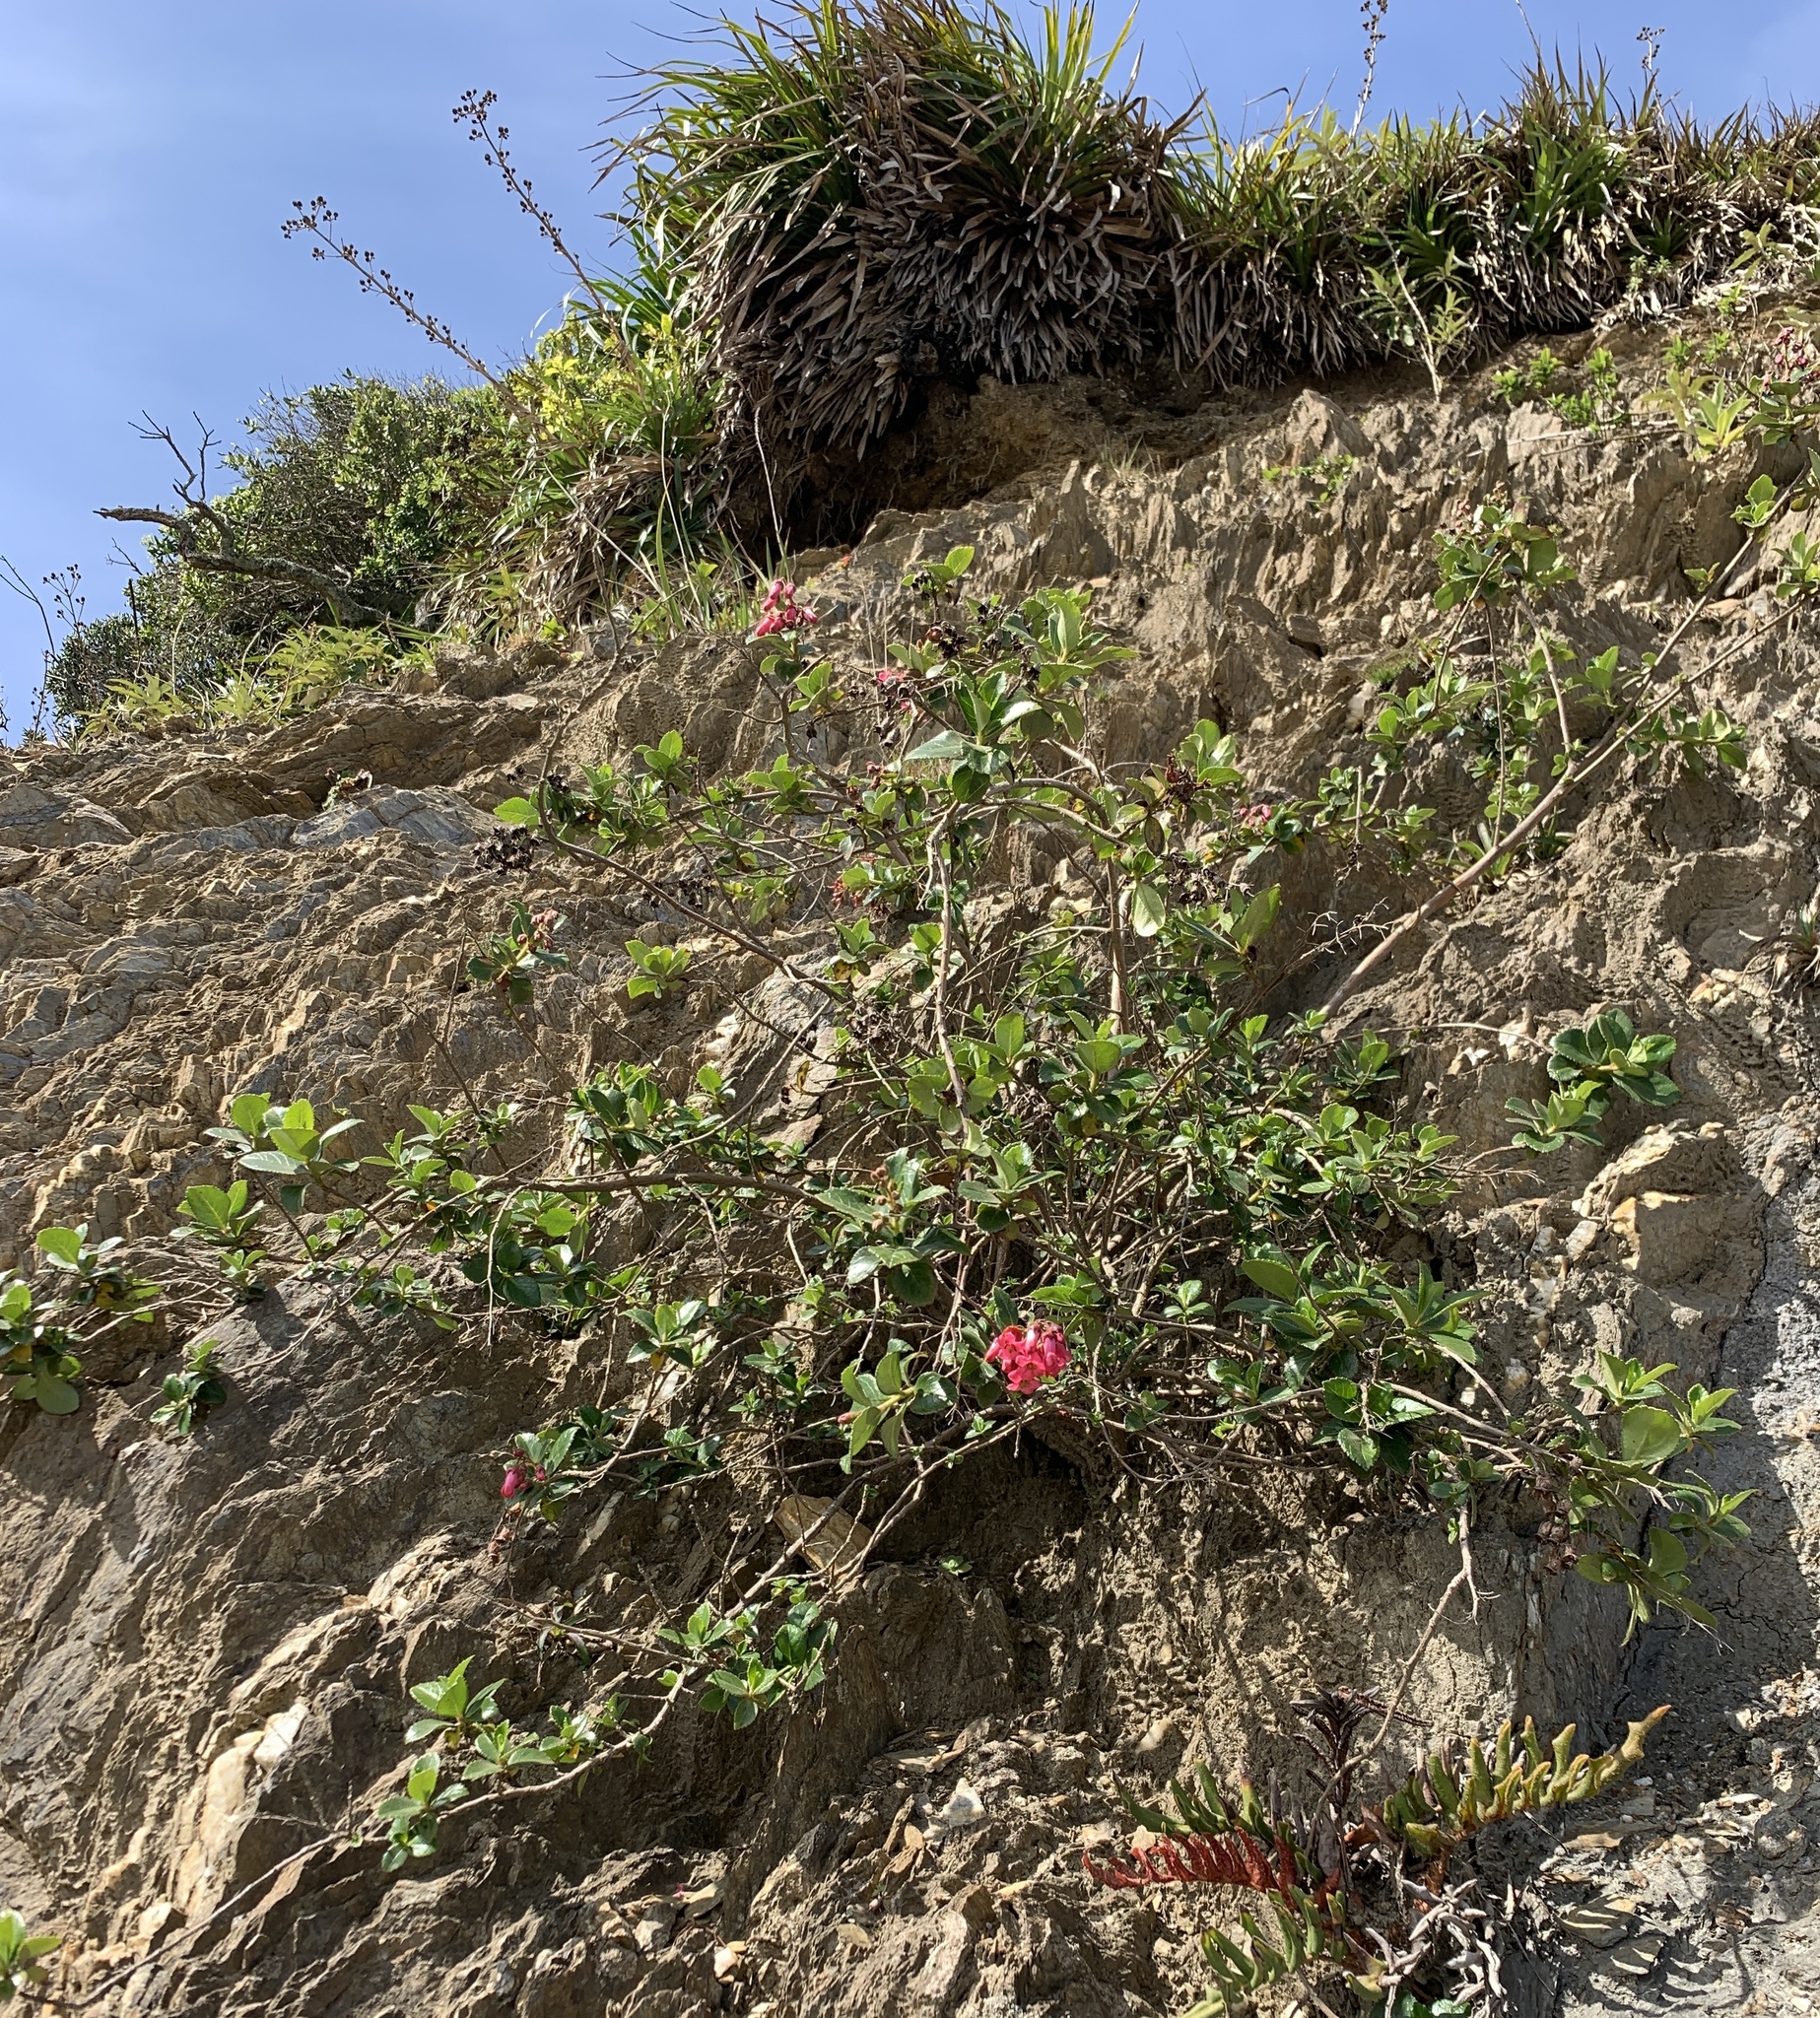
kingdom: Plantae
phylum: Tracheophyta
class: Magnoliopsida
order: Escalloniales
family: Escalloniaceae
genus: Escallonia
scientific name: Escallonia rubra
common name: Redclaws
